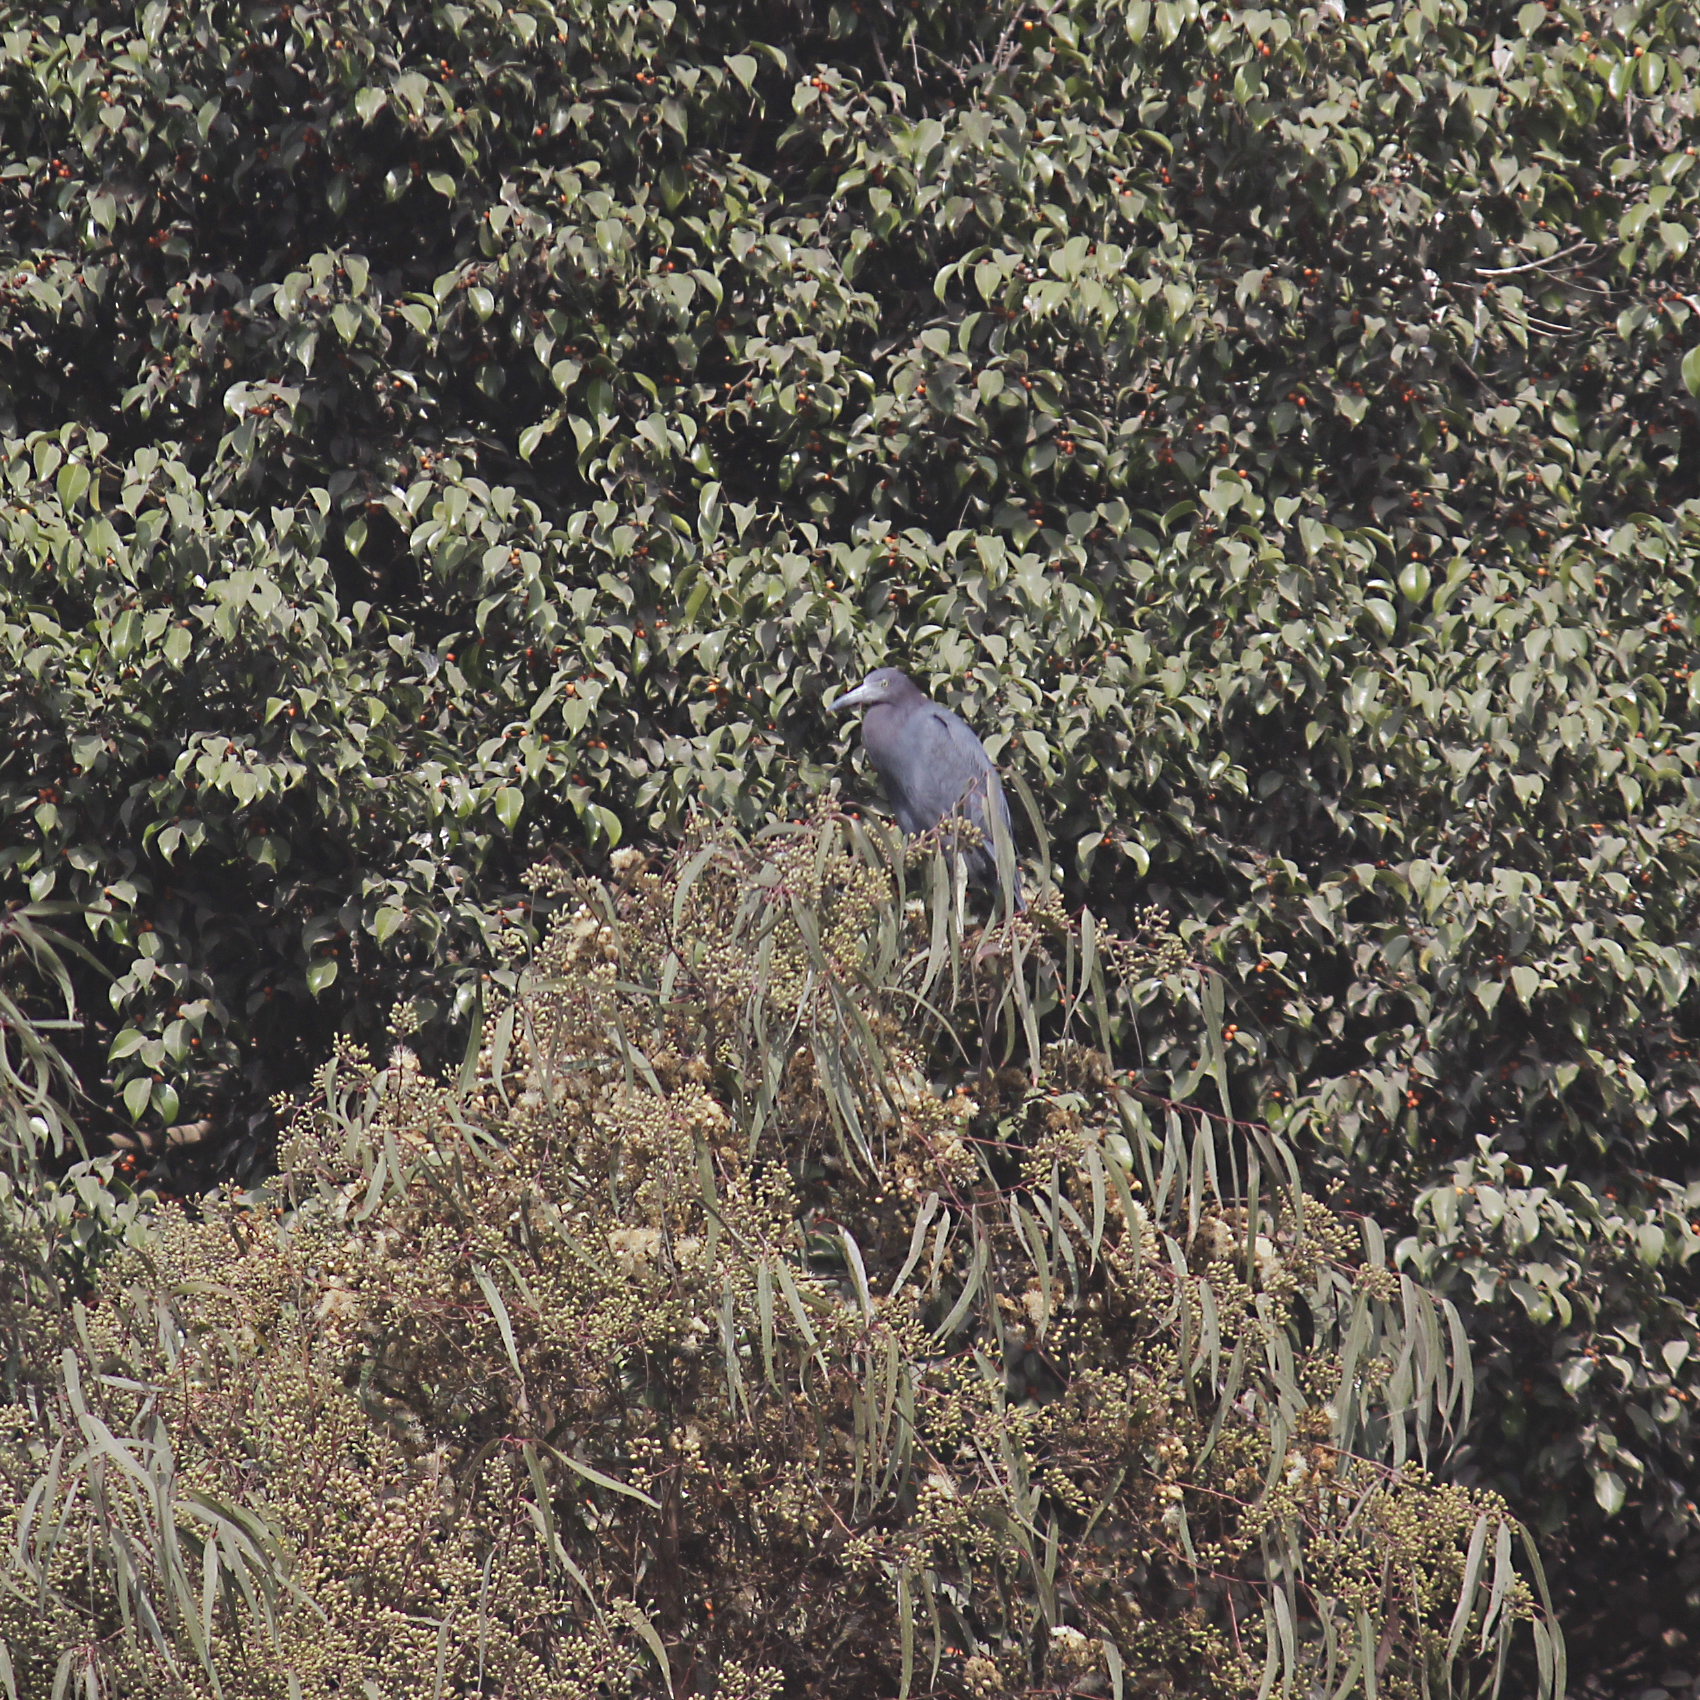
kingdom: Animalia
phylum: Chordata
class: Aves
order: Pelecaniformes
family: Ardeidae
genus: Egretta
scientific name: Egretta caerulea
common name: Little blue heron
